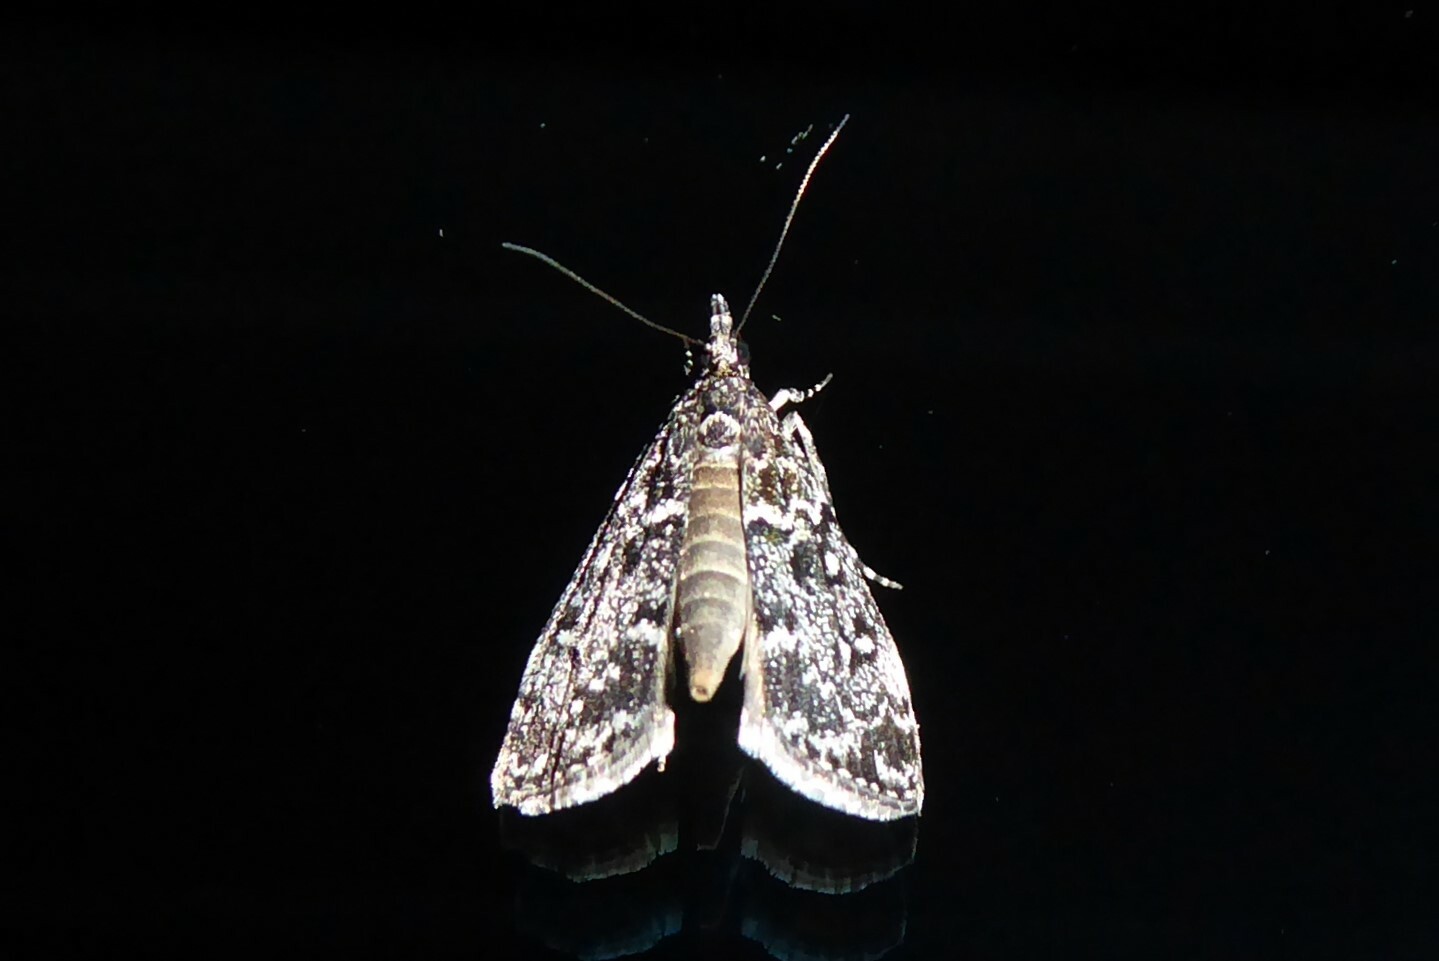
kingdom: Animalia
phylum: Arthropoda
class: Insecta
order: Lepidoptera
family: Crambidae
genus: Eudonia
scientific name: Eudonia philerga
